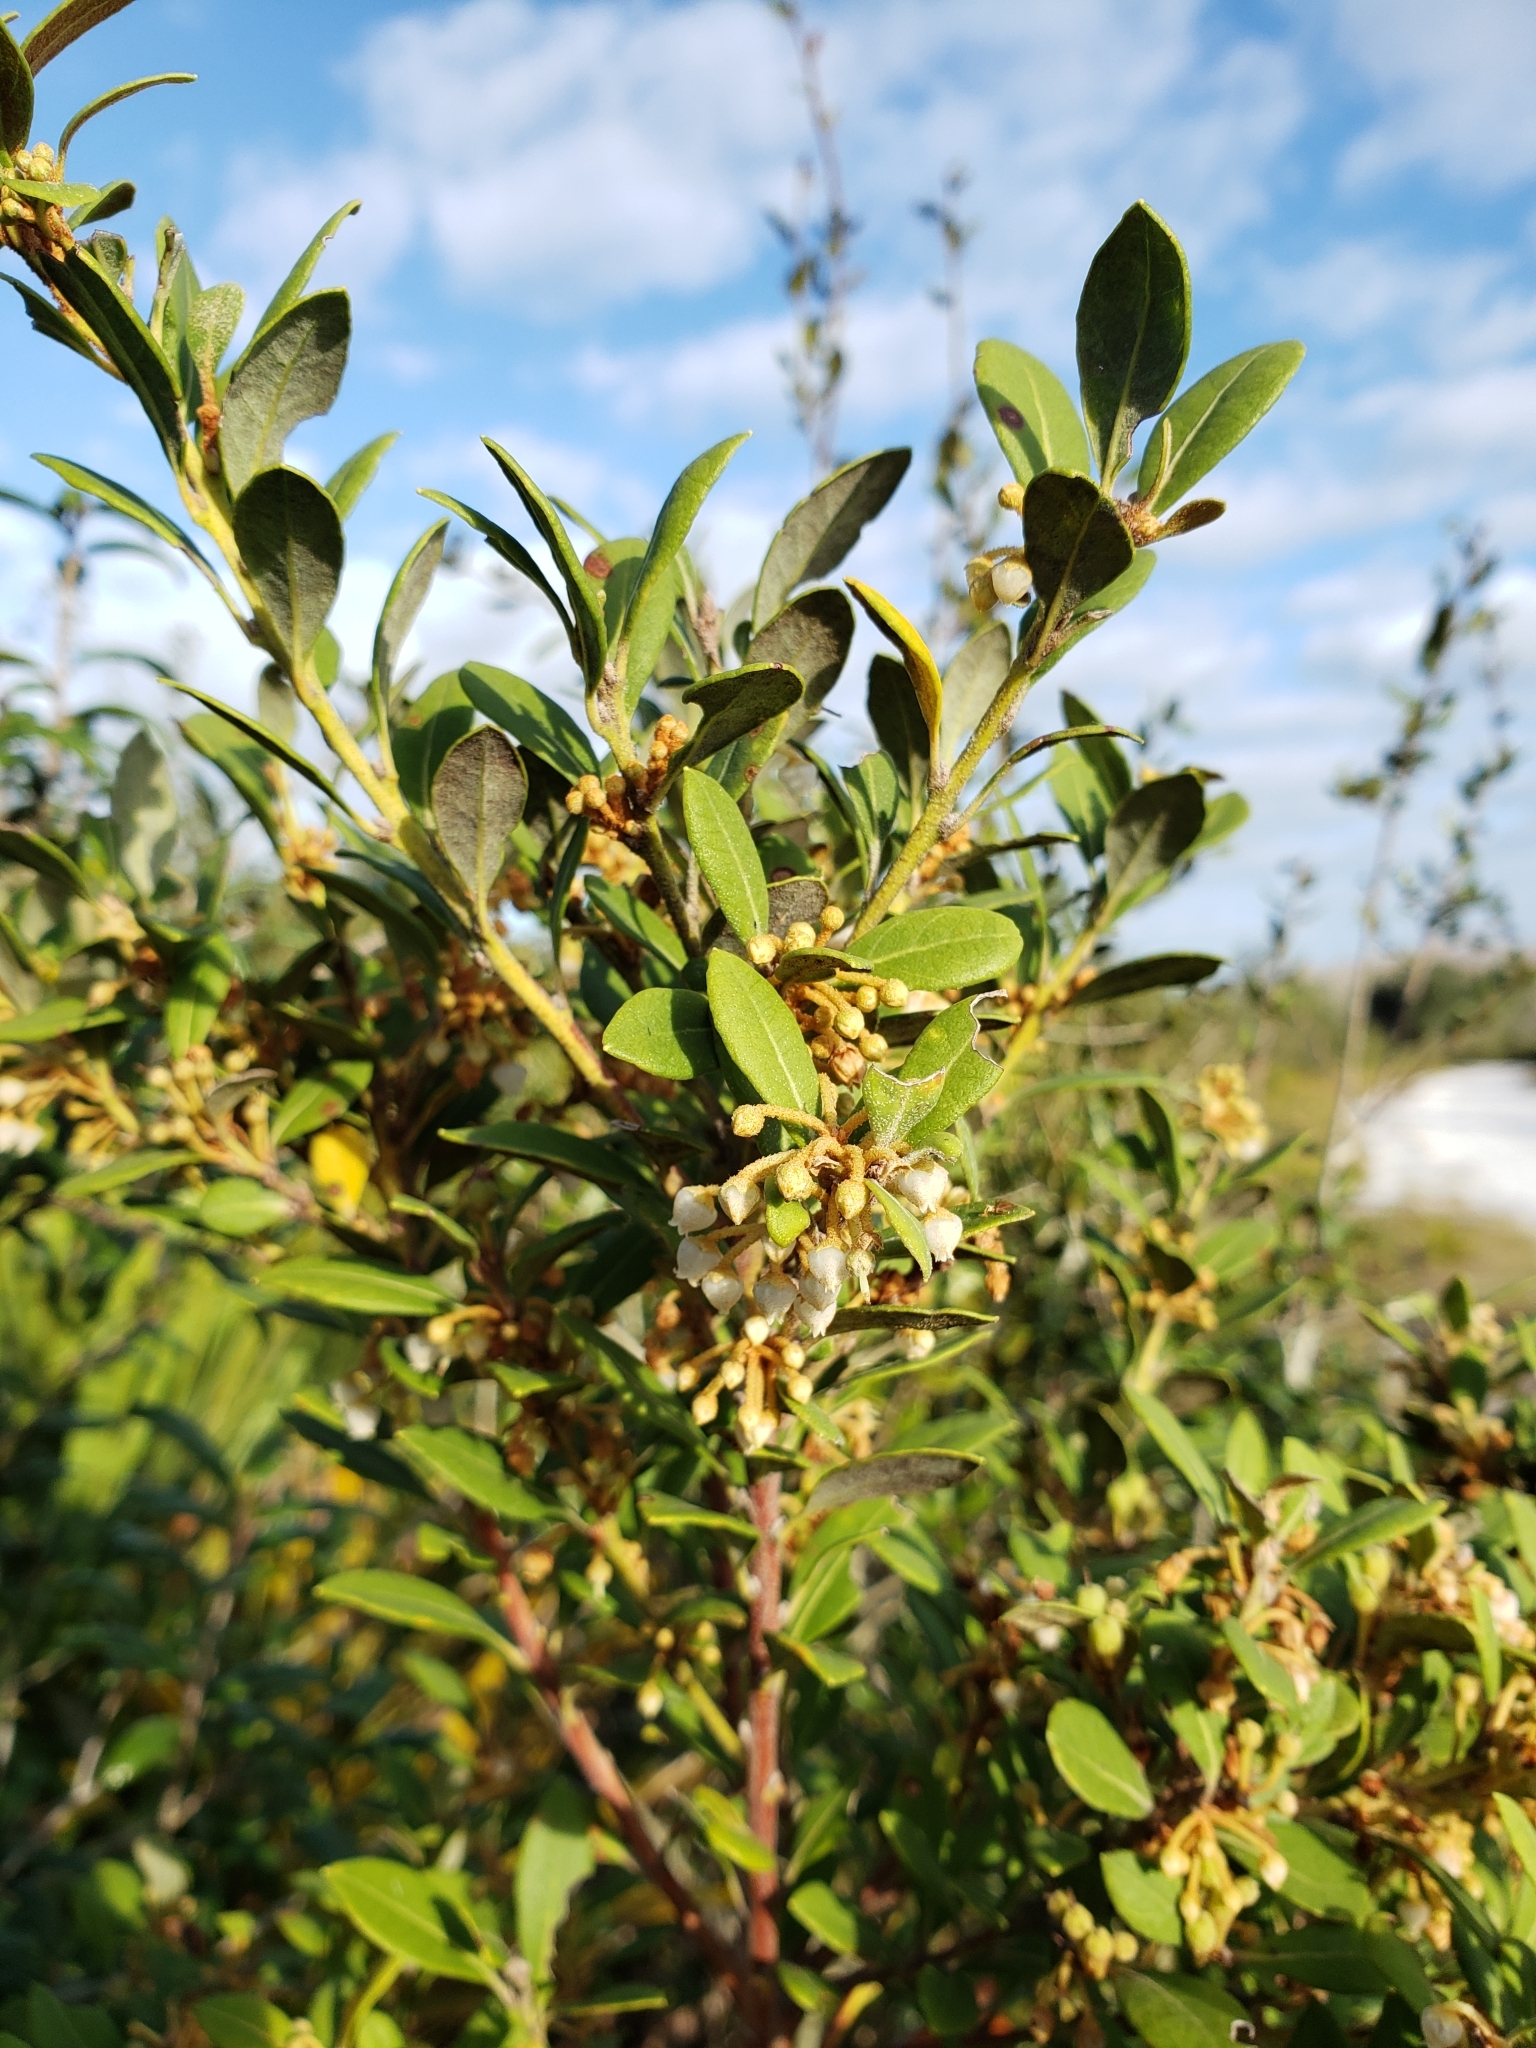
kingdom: Plantae
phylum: Tracheophyta
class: Magnoliopsida
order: Ericales
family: Ericaceae
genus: Lyonia
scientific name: Lyonia fruticosa
